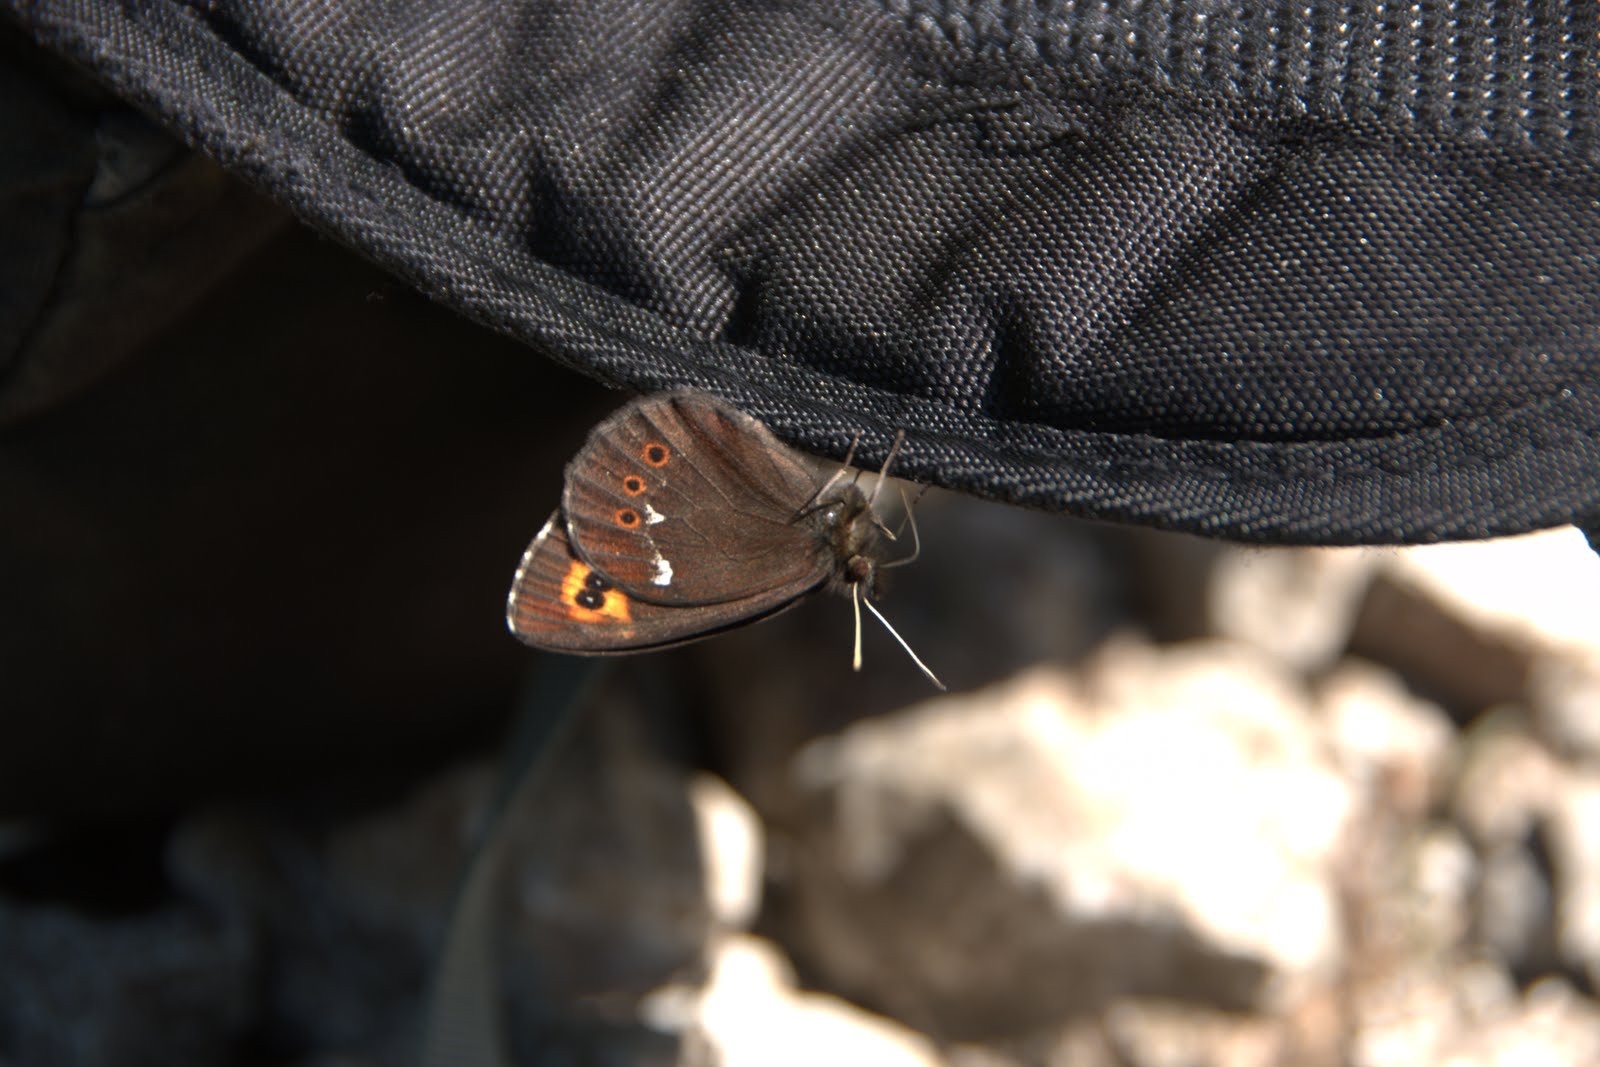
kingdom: Animalia
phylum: Arthropoda
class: Insecta
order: Lepidoptera
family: Nymphalidae
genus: Erebia
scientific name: Erebia ligea
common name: Arran brown
